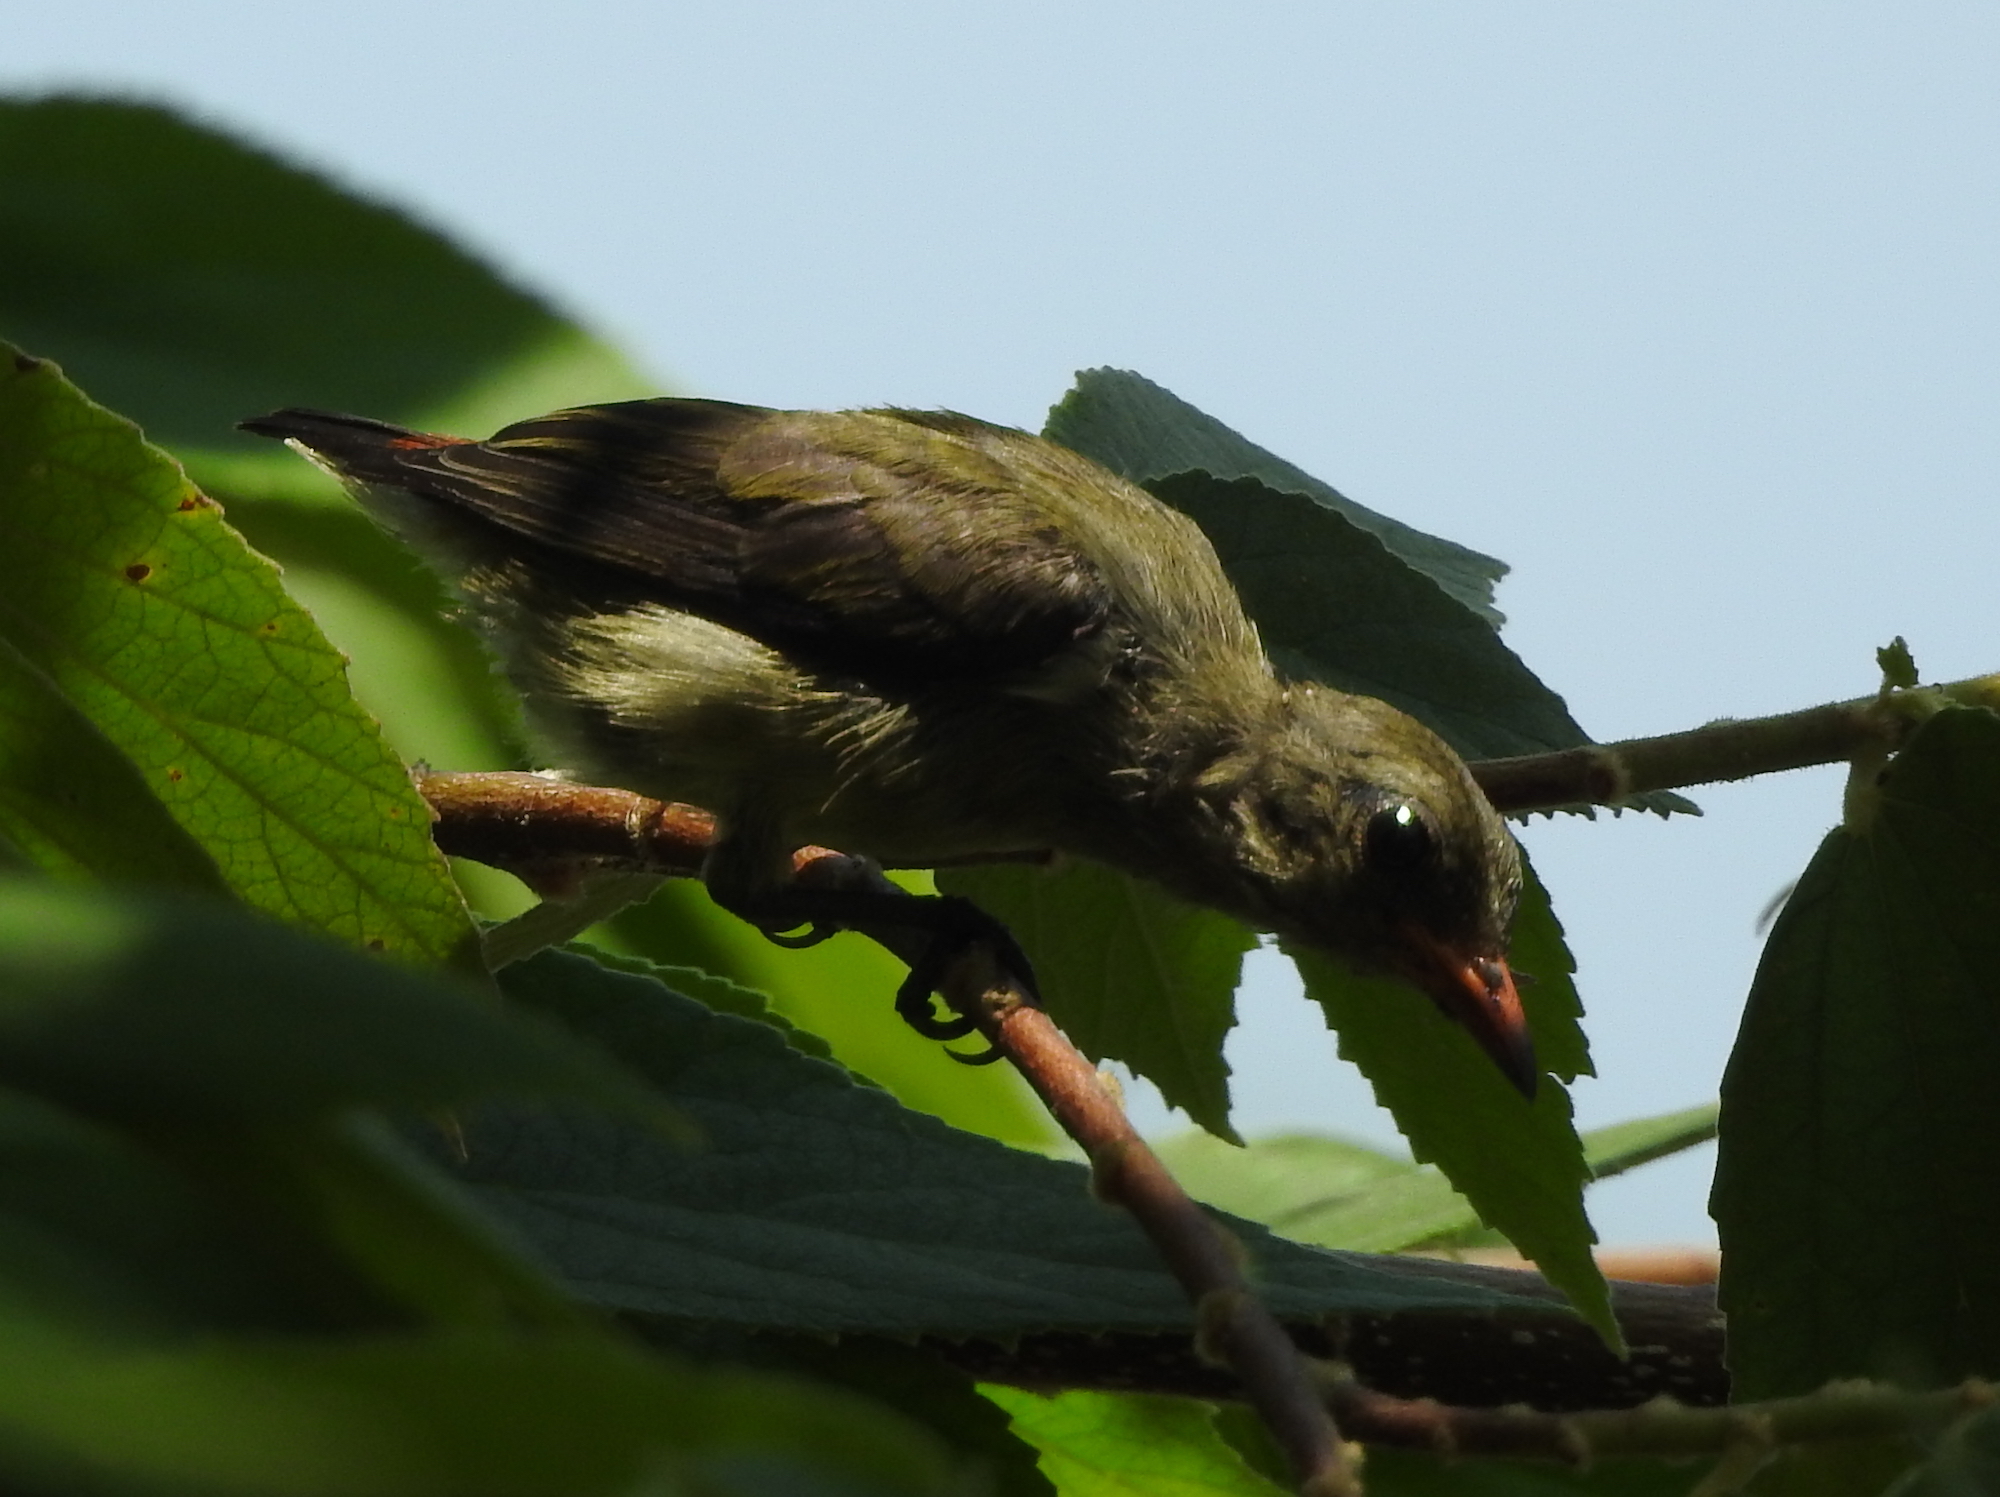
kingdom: Animalia
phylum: Chordata
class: Aves
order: Passeriformes
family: Dicaeidae
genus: Dicaeum
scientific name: Dicaeum cruentatum
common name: Scarlet-backed flowerpecker
